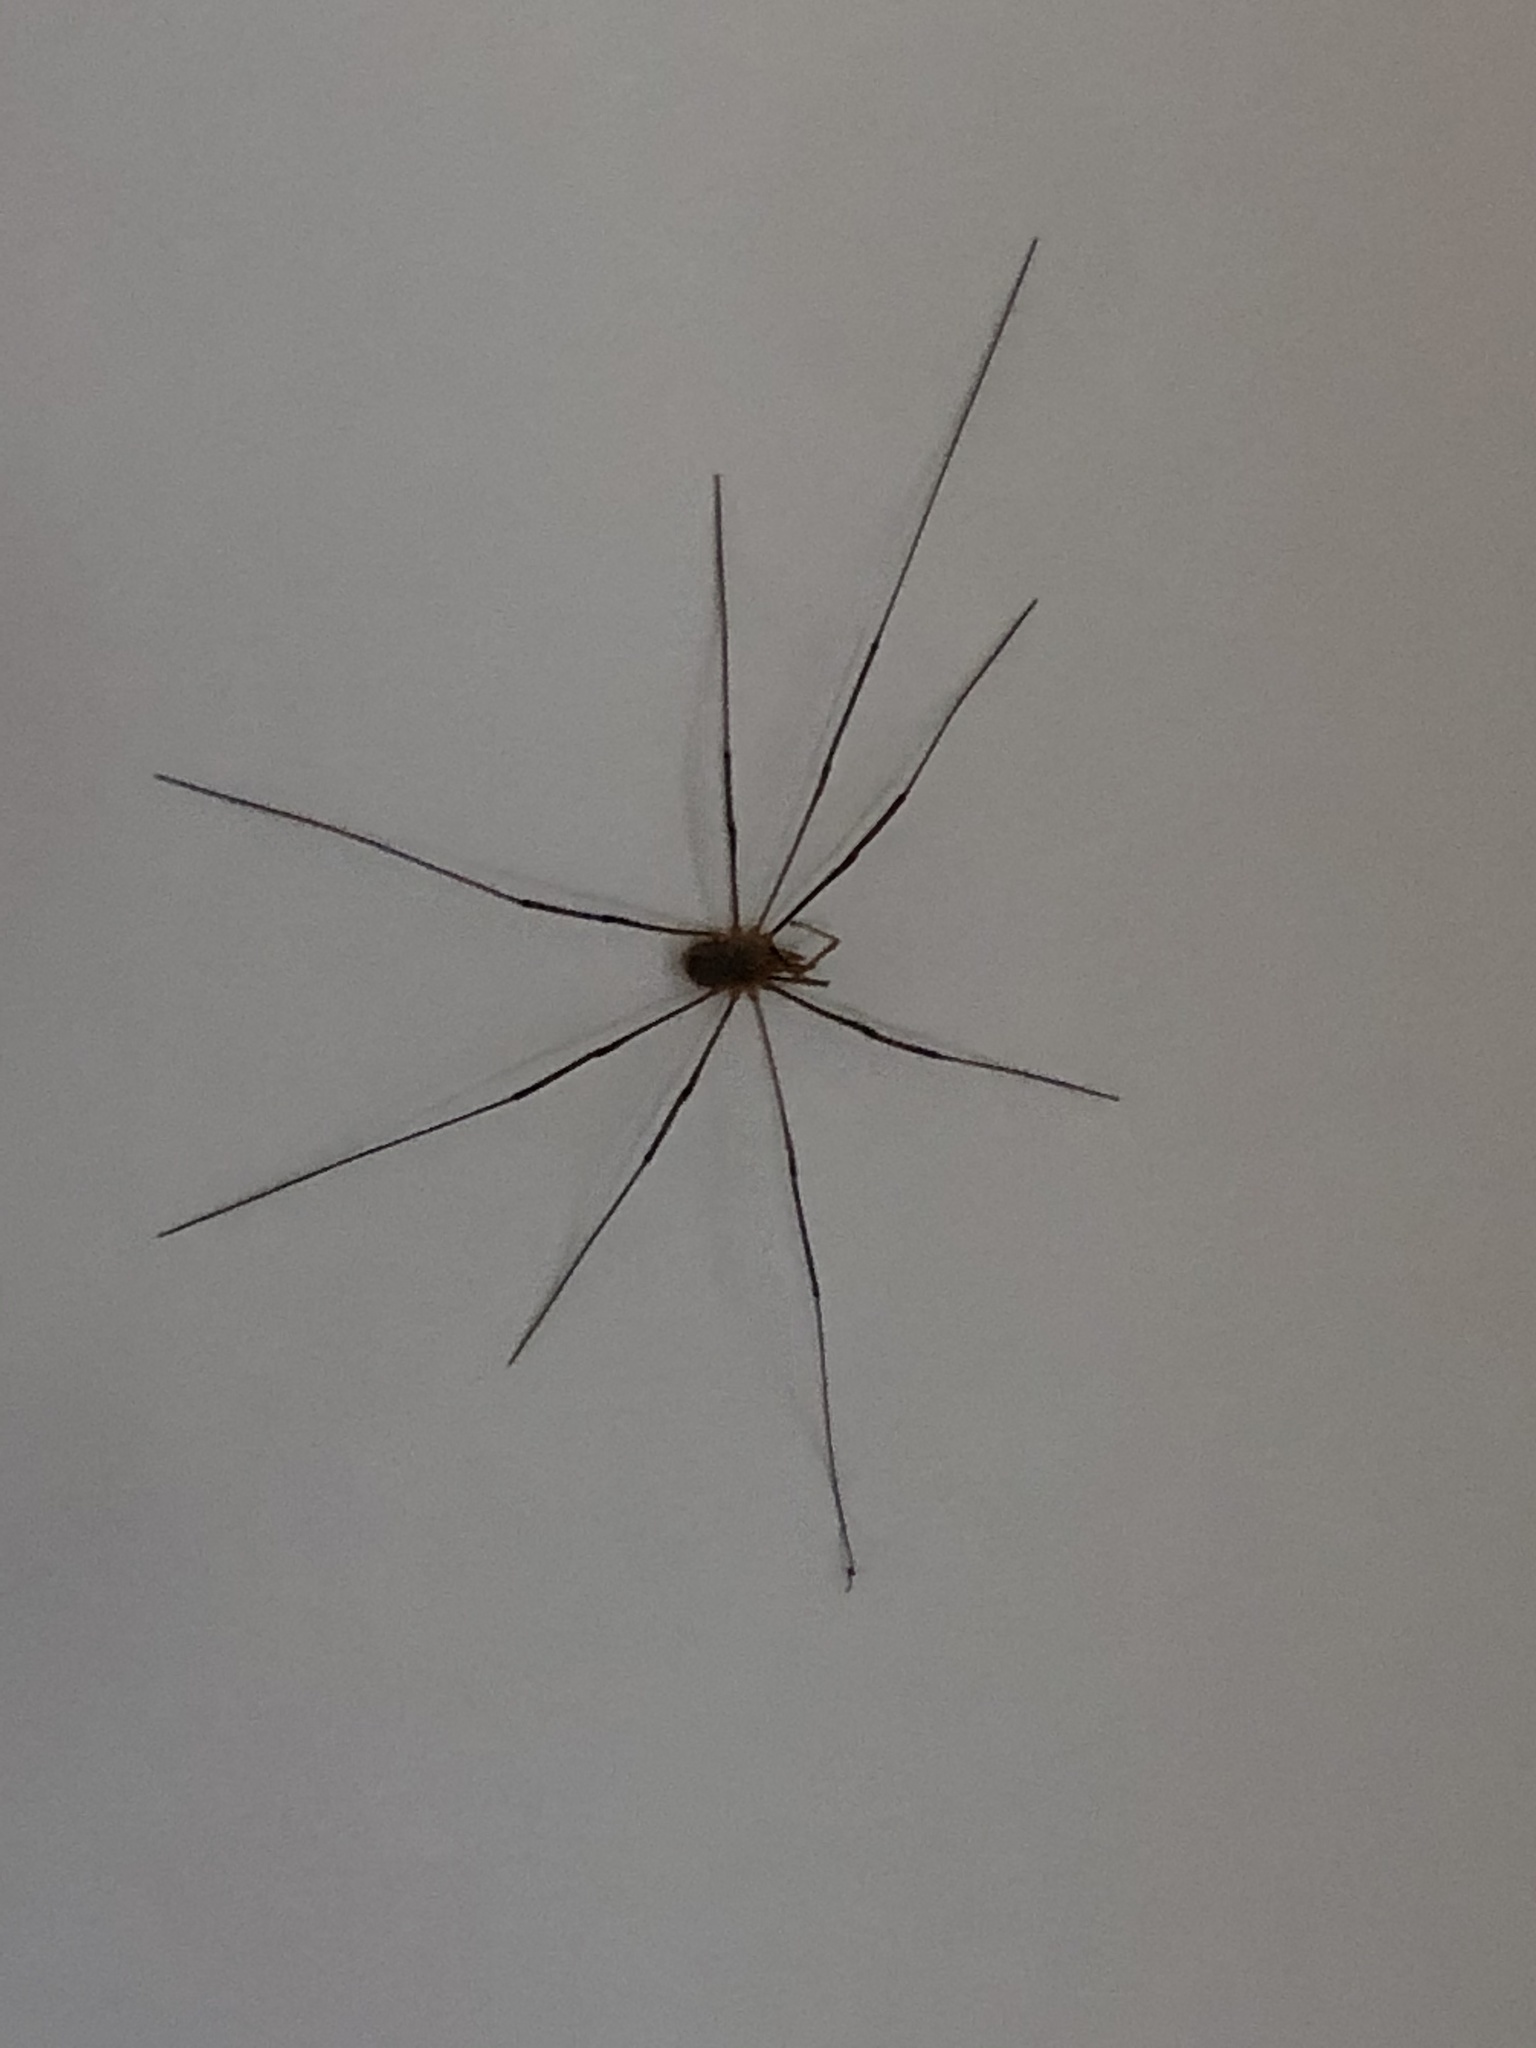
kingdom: Animalia
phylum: Arthropoda
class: Arachnida
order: Opiliones
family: Phalangiidae
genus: Phalangium
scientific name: Phalangium opilio
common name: Daddy longleg
